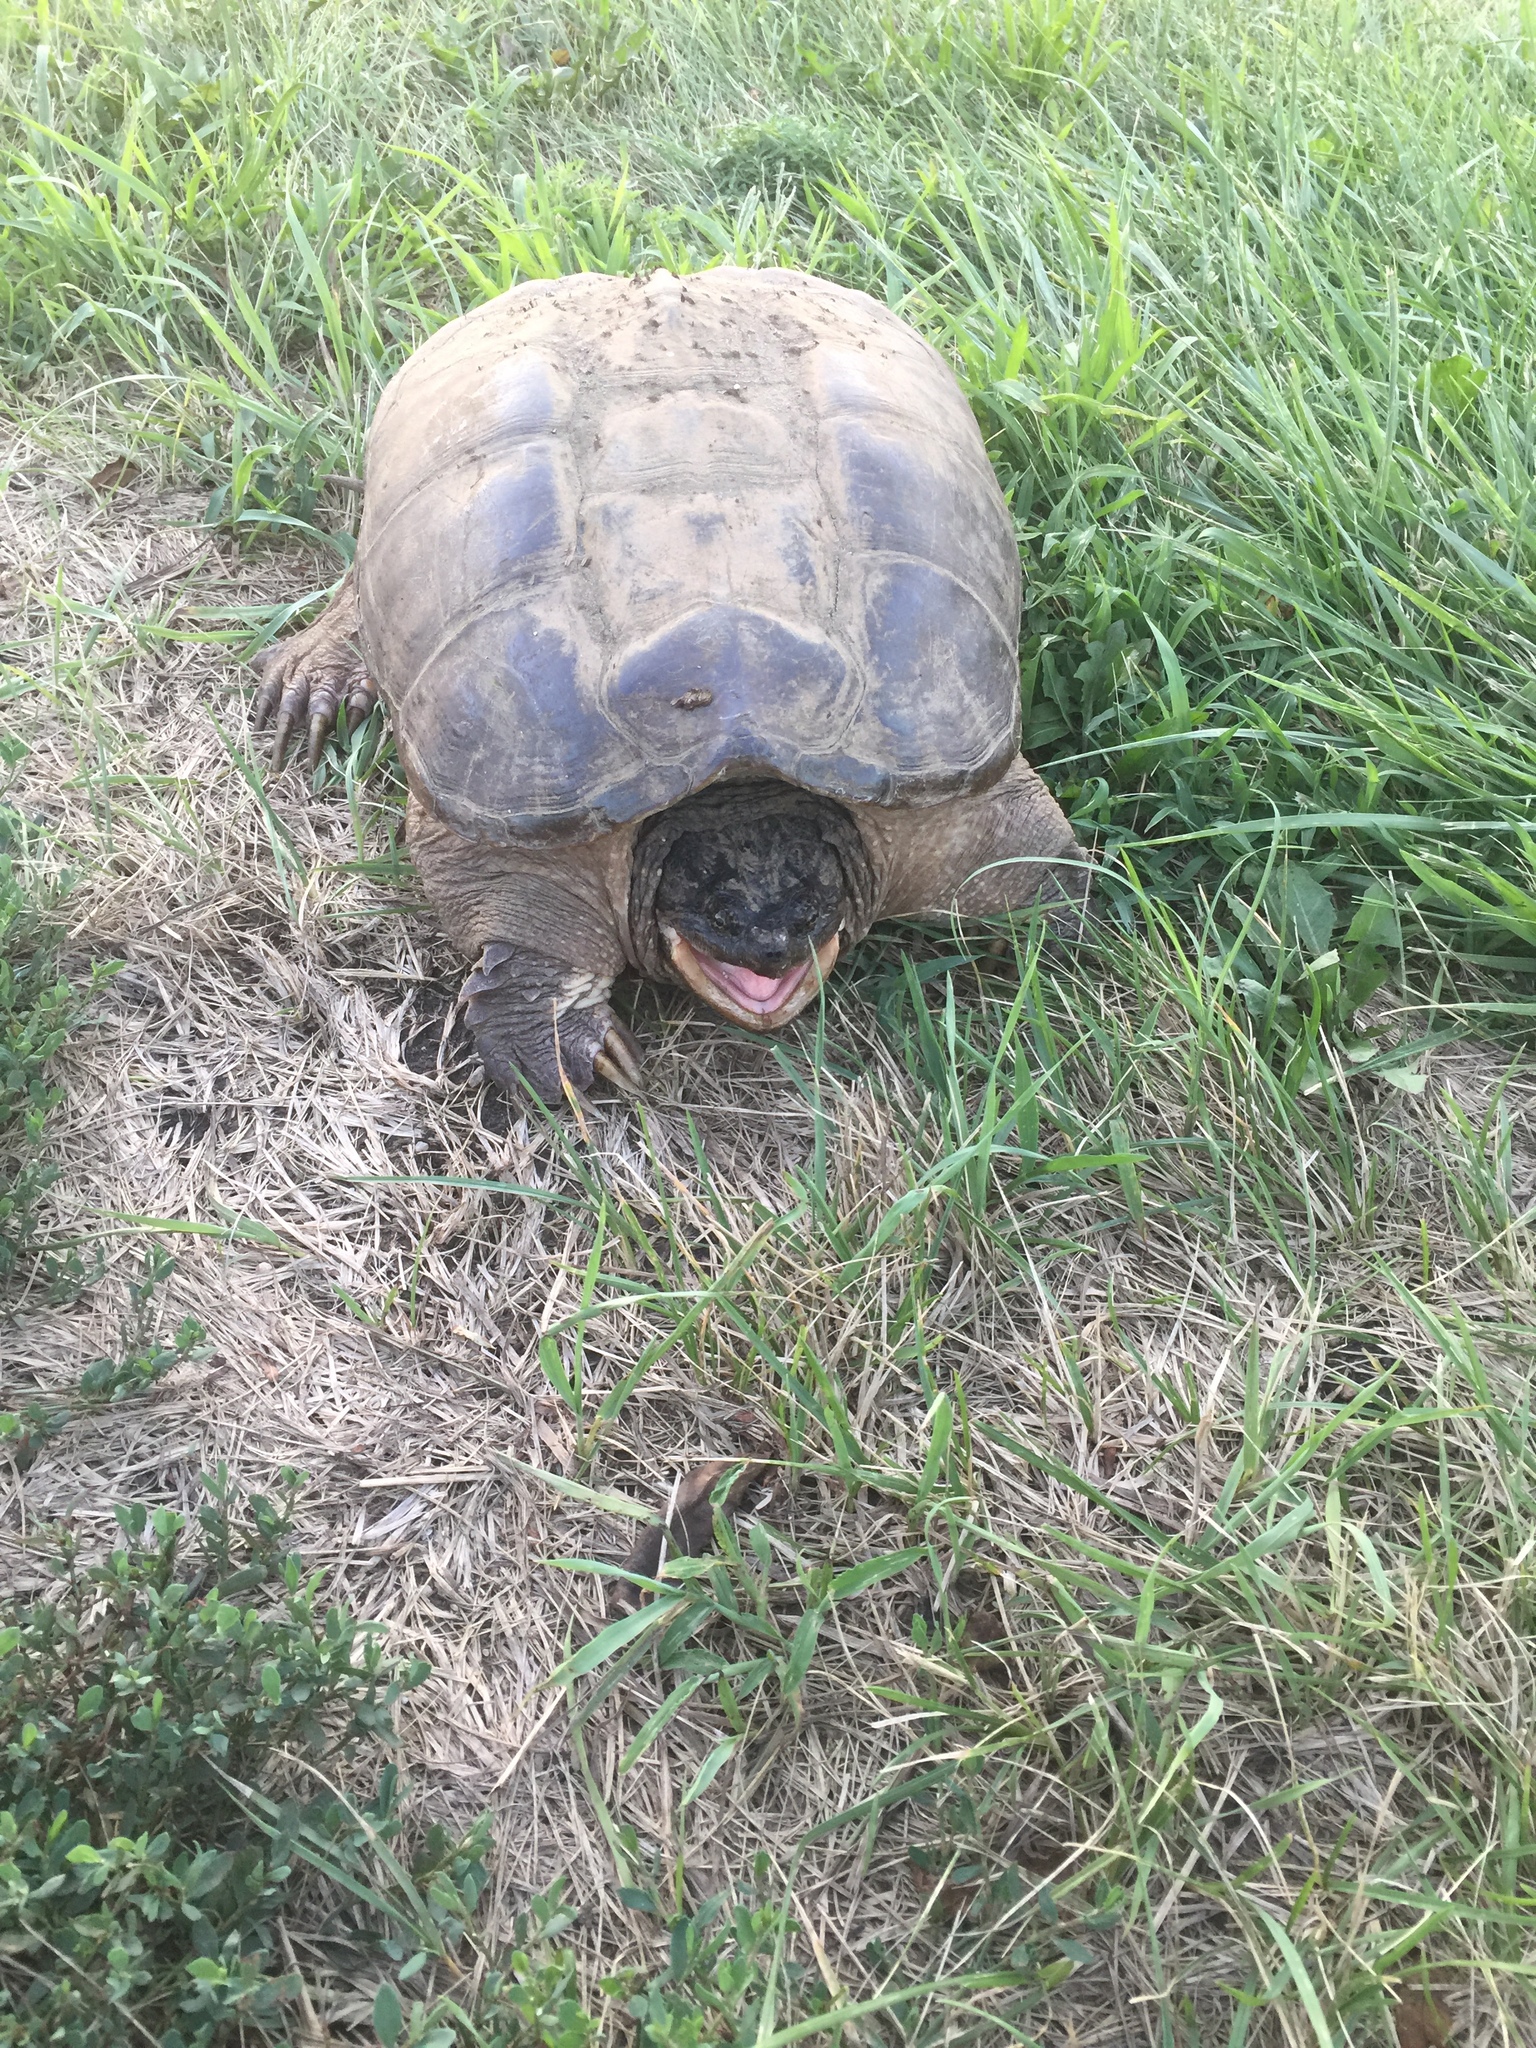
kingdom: Animalia
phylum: Chordata
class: Testudines
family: Chelydridae
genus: Chelydra
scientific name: Chelydra serpentina
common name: Common snapping turtle
